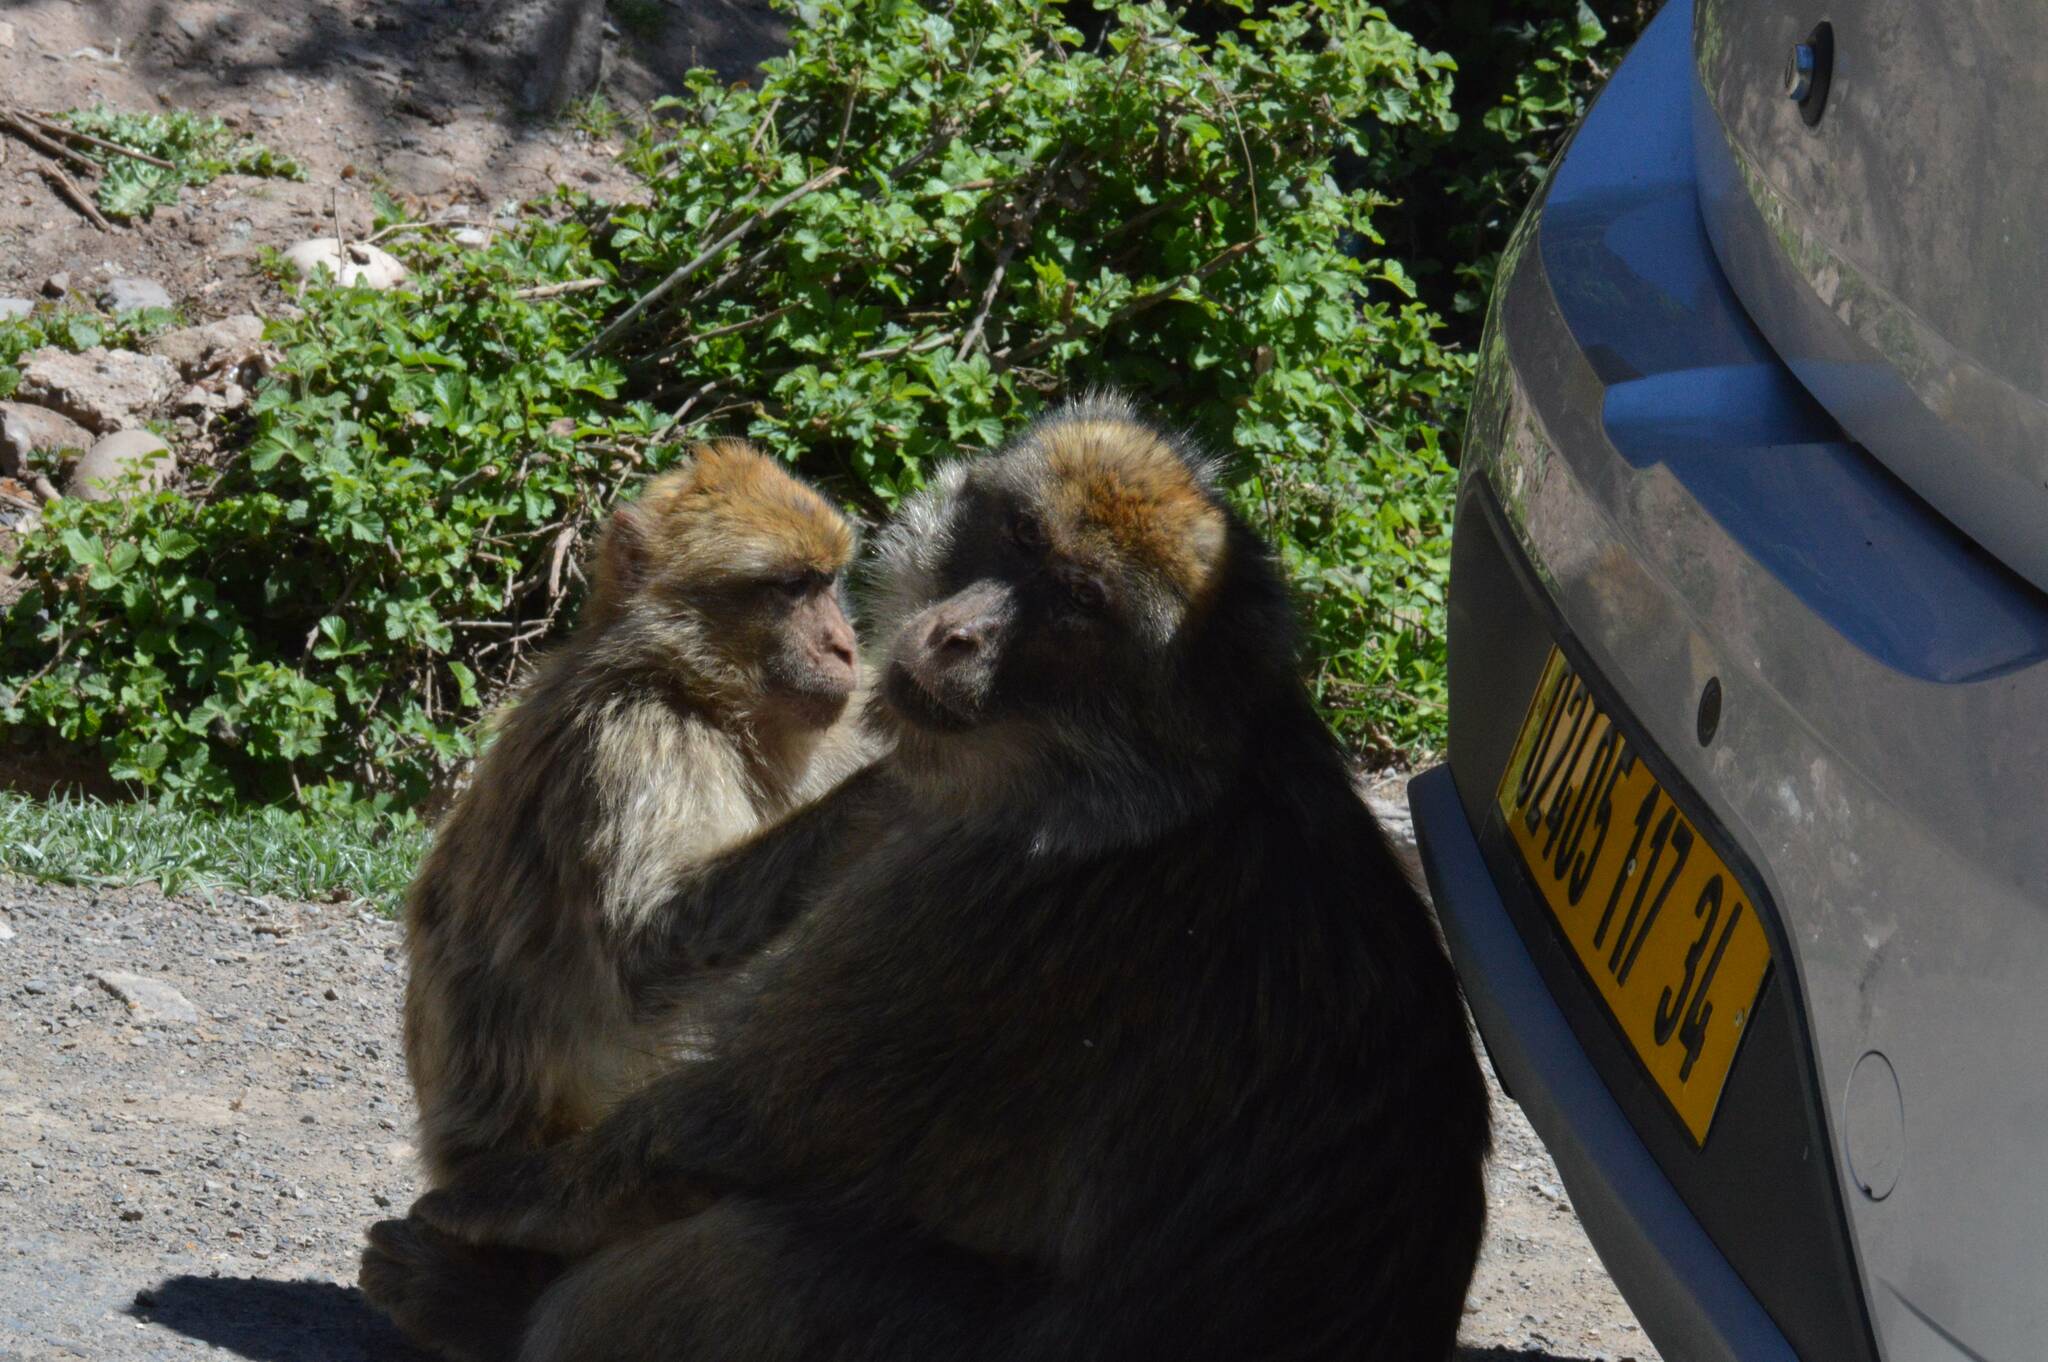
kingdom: Animalia
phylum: Chordata
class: Mammalia
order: Primates
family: Cercopithecidae
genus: Macaca
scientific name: Macaca sylvanus
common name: Barbary macaque
